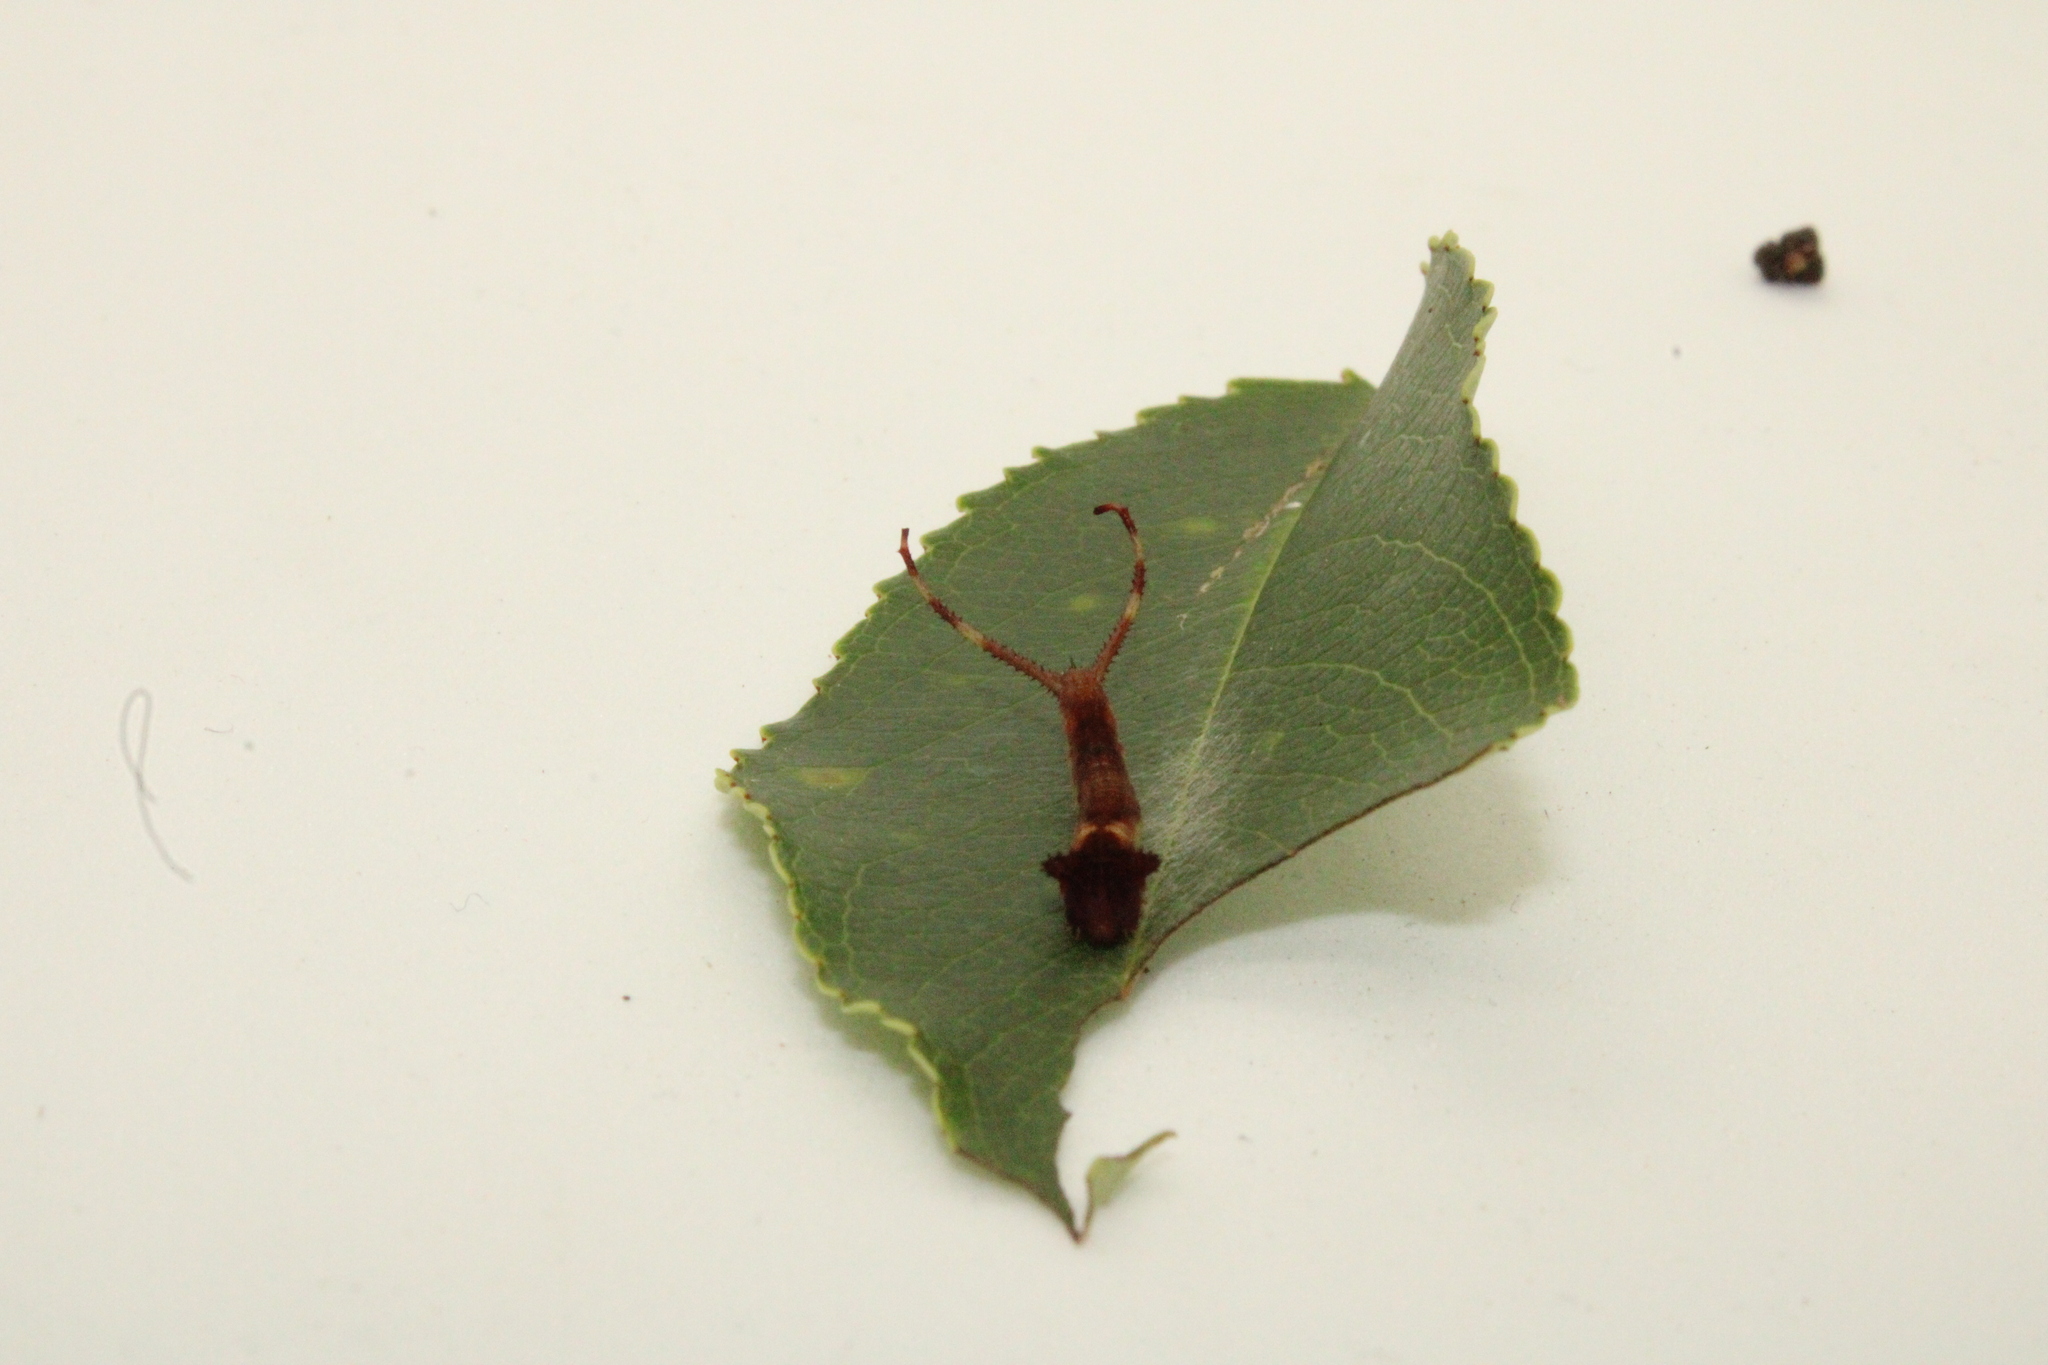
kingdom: Animalia
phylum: Arthropoda
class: Insecta
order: Lepidoptera
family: Notodontidae
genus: Furcula
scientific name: Furcula borealis
